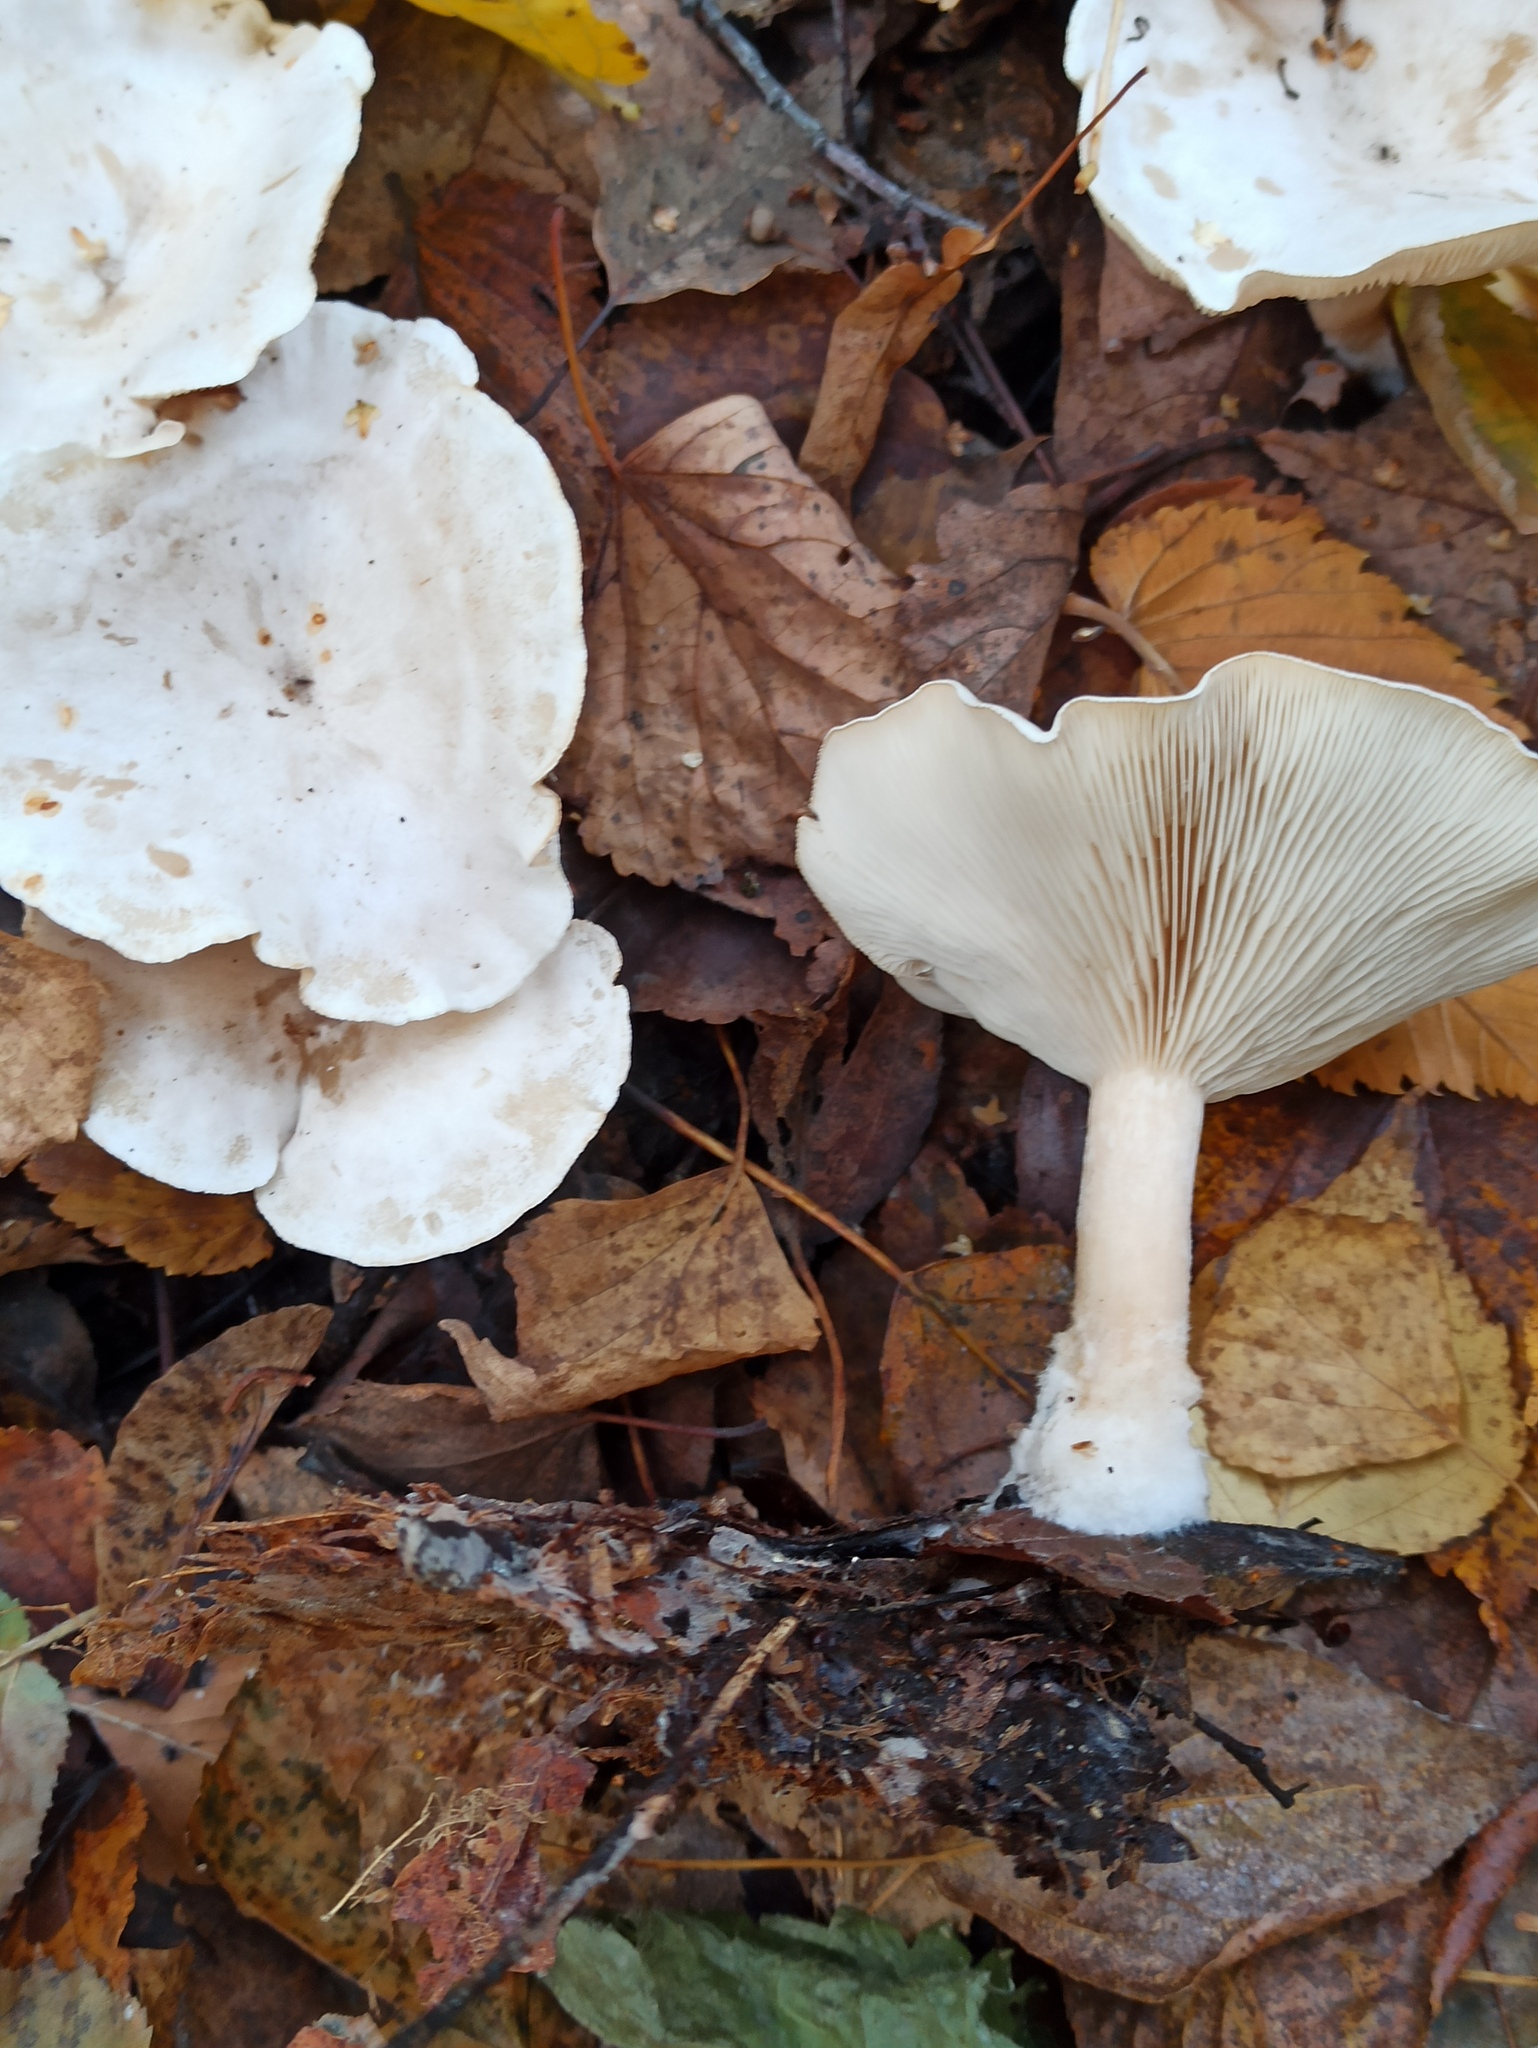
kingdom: Fungi
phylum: Basidiomycota
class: Agaricomycetes
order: Agaricales
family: Tricholomataceae
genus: Collybia
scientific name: Collybia phylladophila
